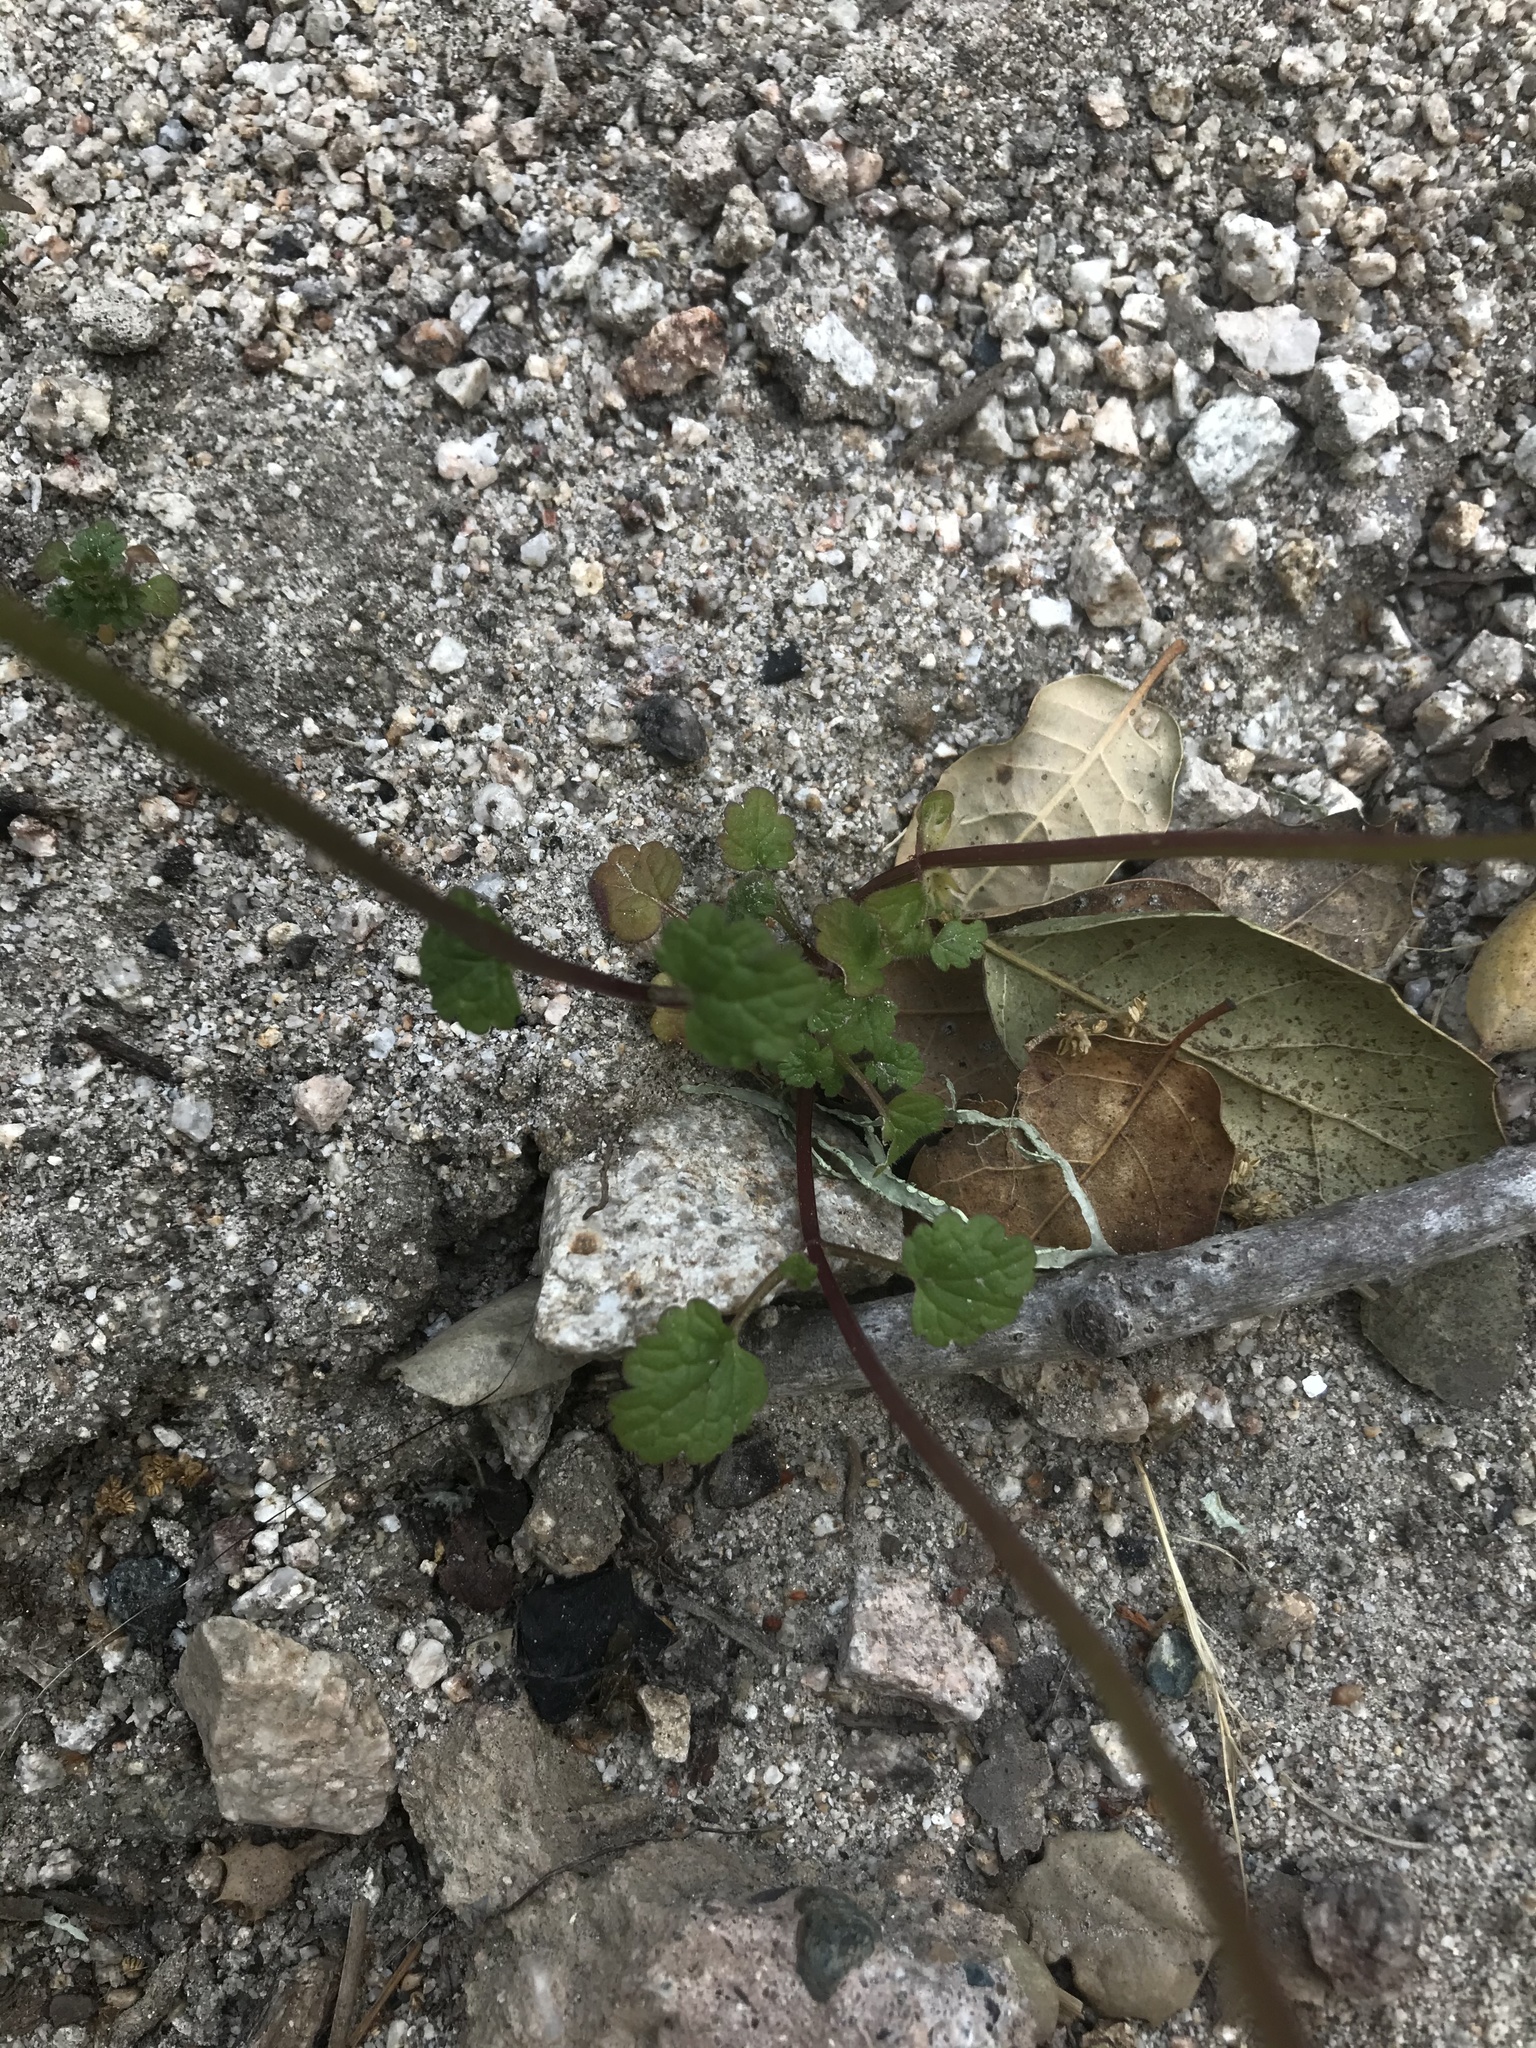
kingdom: Plantae
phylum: Tracheophyta
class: Magnoliopsida
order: Lamiales
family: Lamiaceae
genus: Lamium
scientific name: Lamium amplexicaule
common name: Henbit dead-nettle
